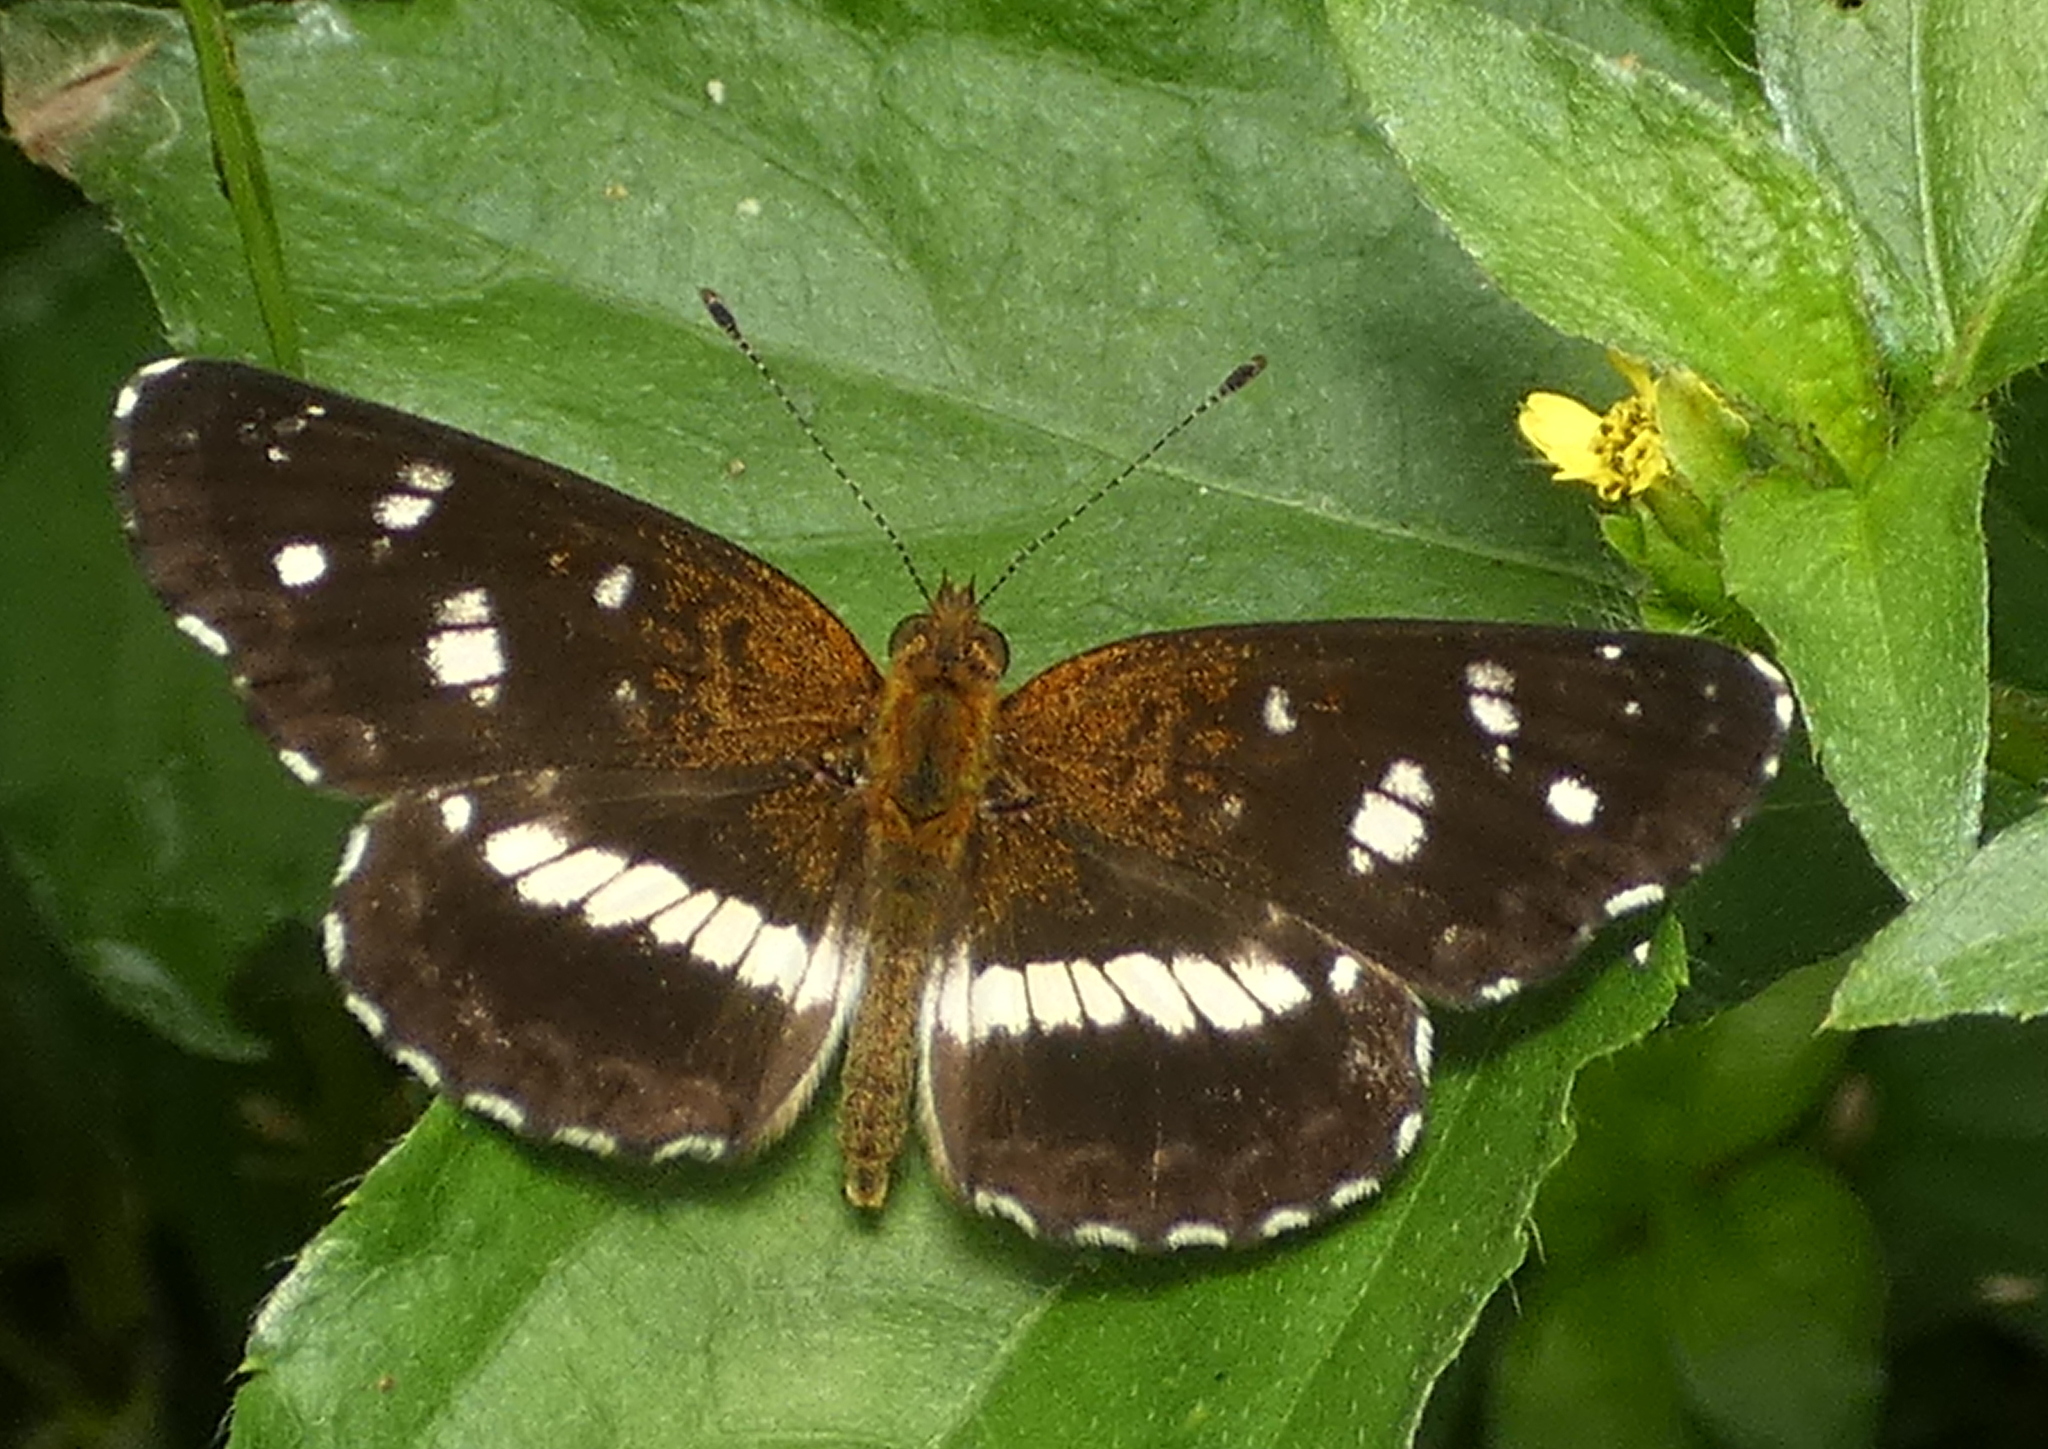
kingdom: Animalia
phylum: Arthropoda
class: Insecta
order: Lepidoptera
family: Nymphalidae
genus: Ortilia
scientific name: Ortilia ithra
